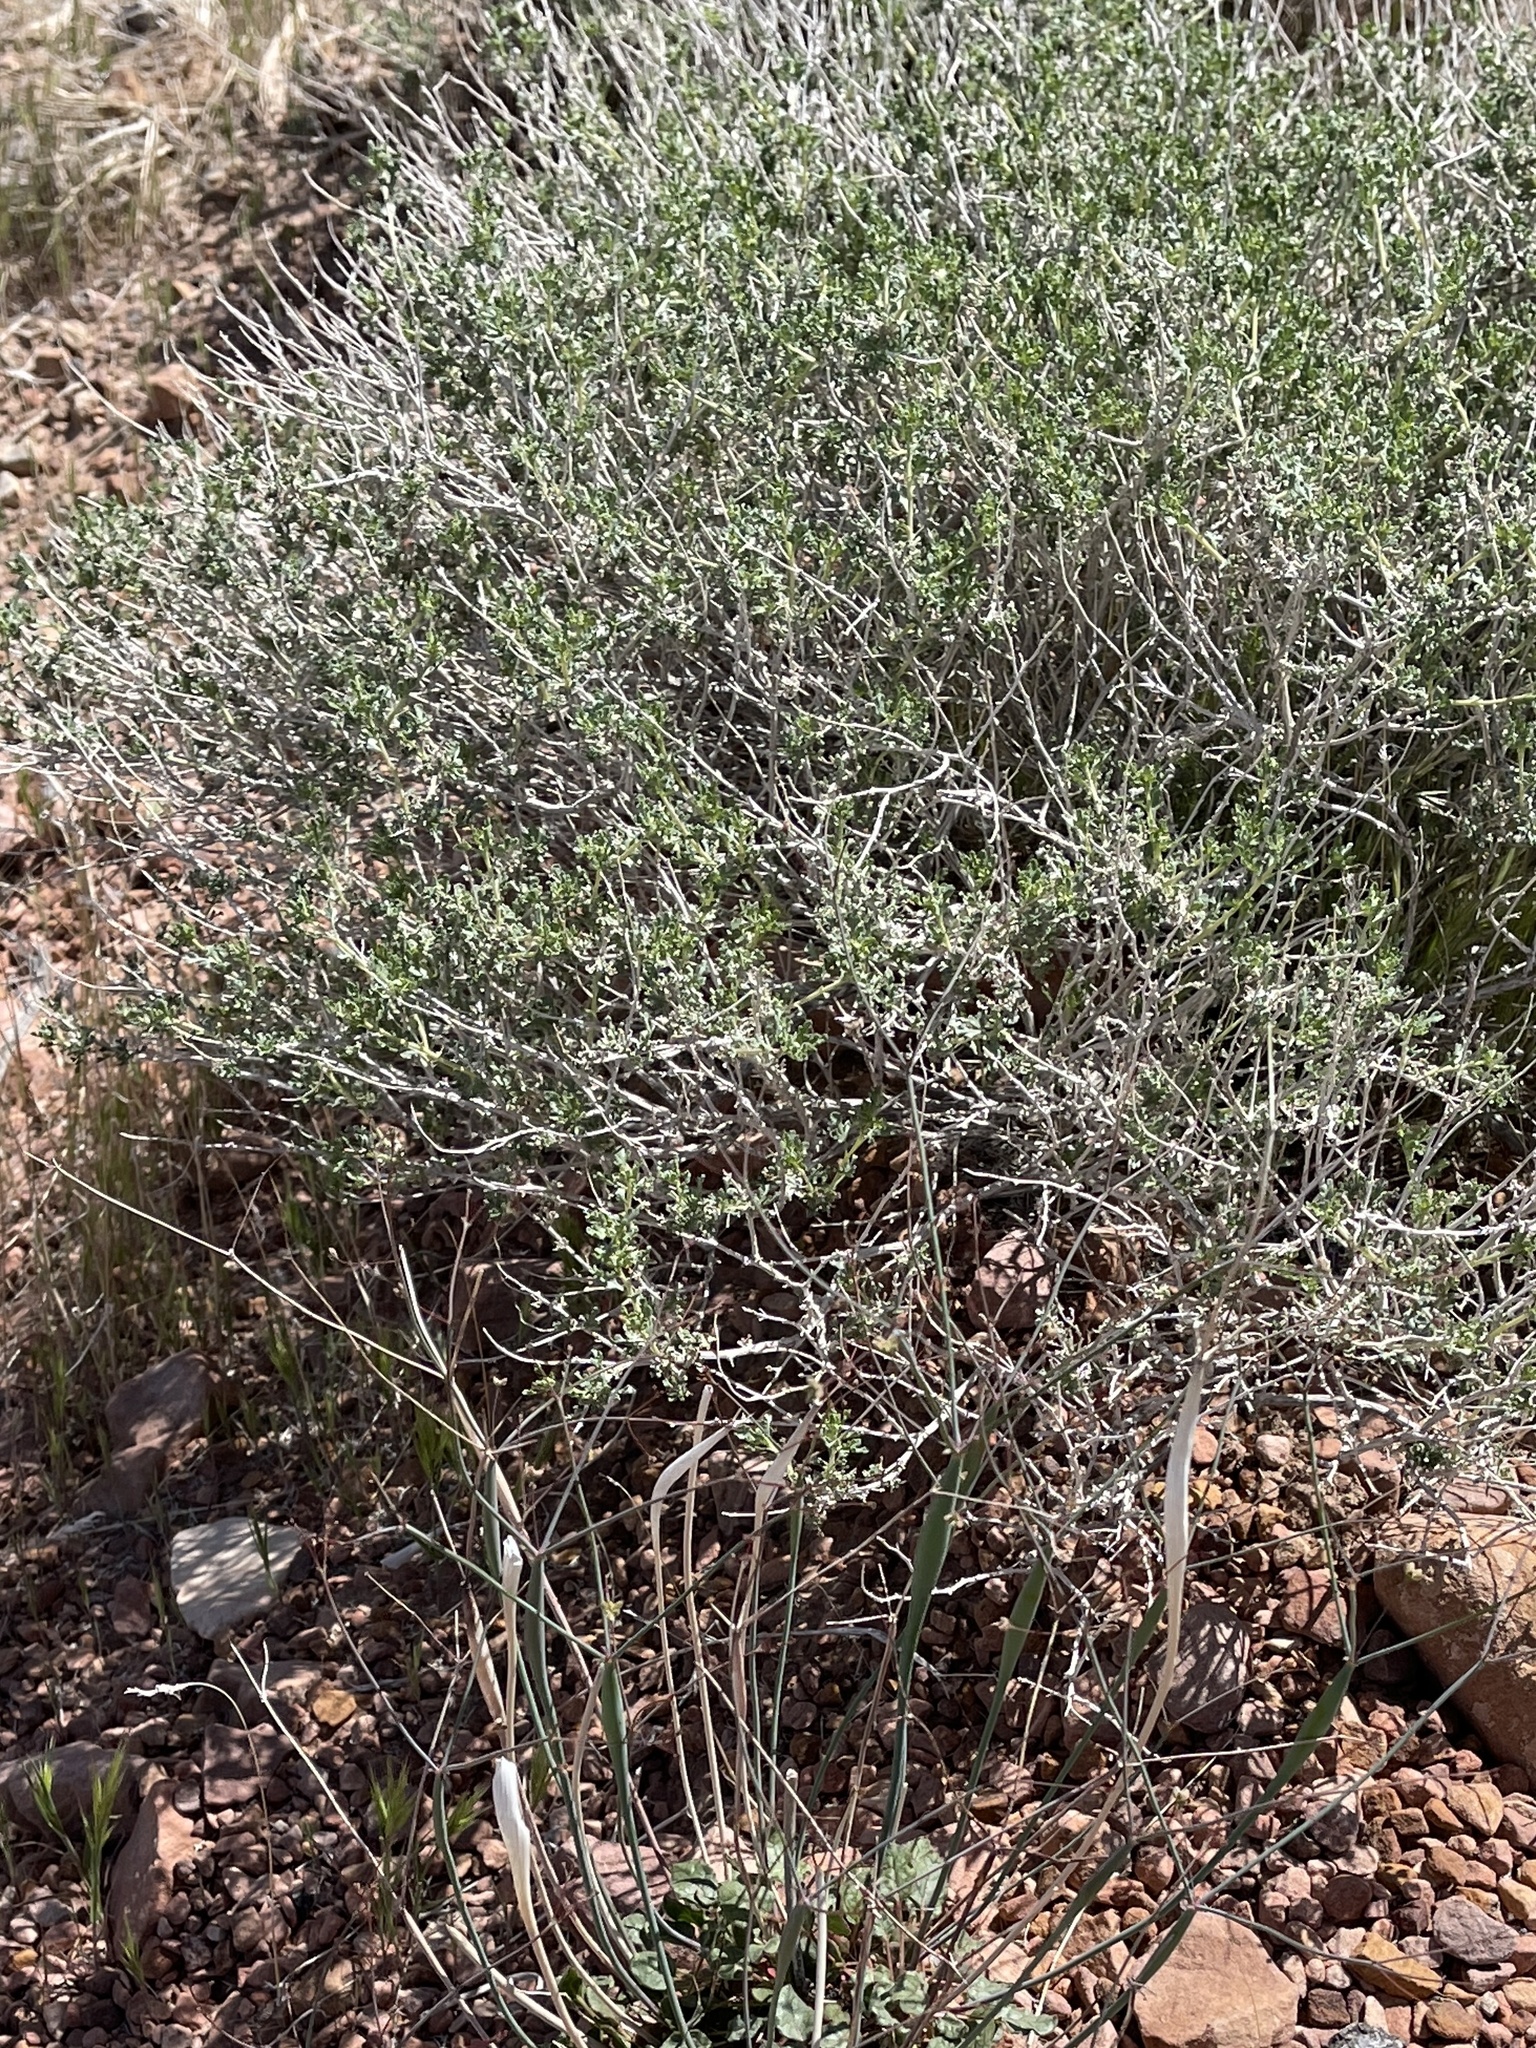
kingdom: Plantae
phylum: Tracheophyta
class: Magnoliopsida
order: Asterales
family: Asteraceae
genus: Ambrosia
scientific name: Ambrosia dumosa
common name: Bur-sage
